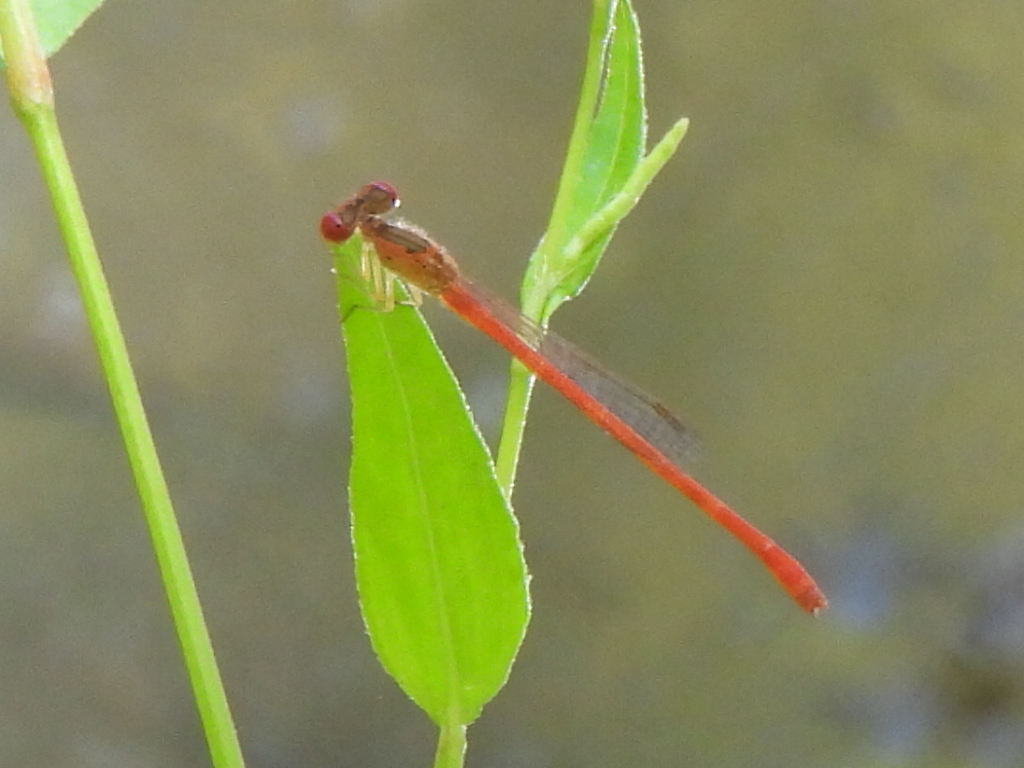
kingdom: Animalia
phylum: Arthropoda
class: Insecta
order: Odonata
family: Coenagrionidae
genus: Telebasis
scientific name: Telebasis salva
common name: Desert firetail
